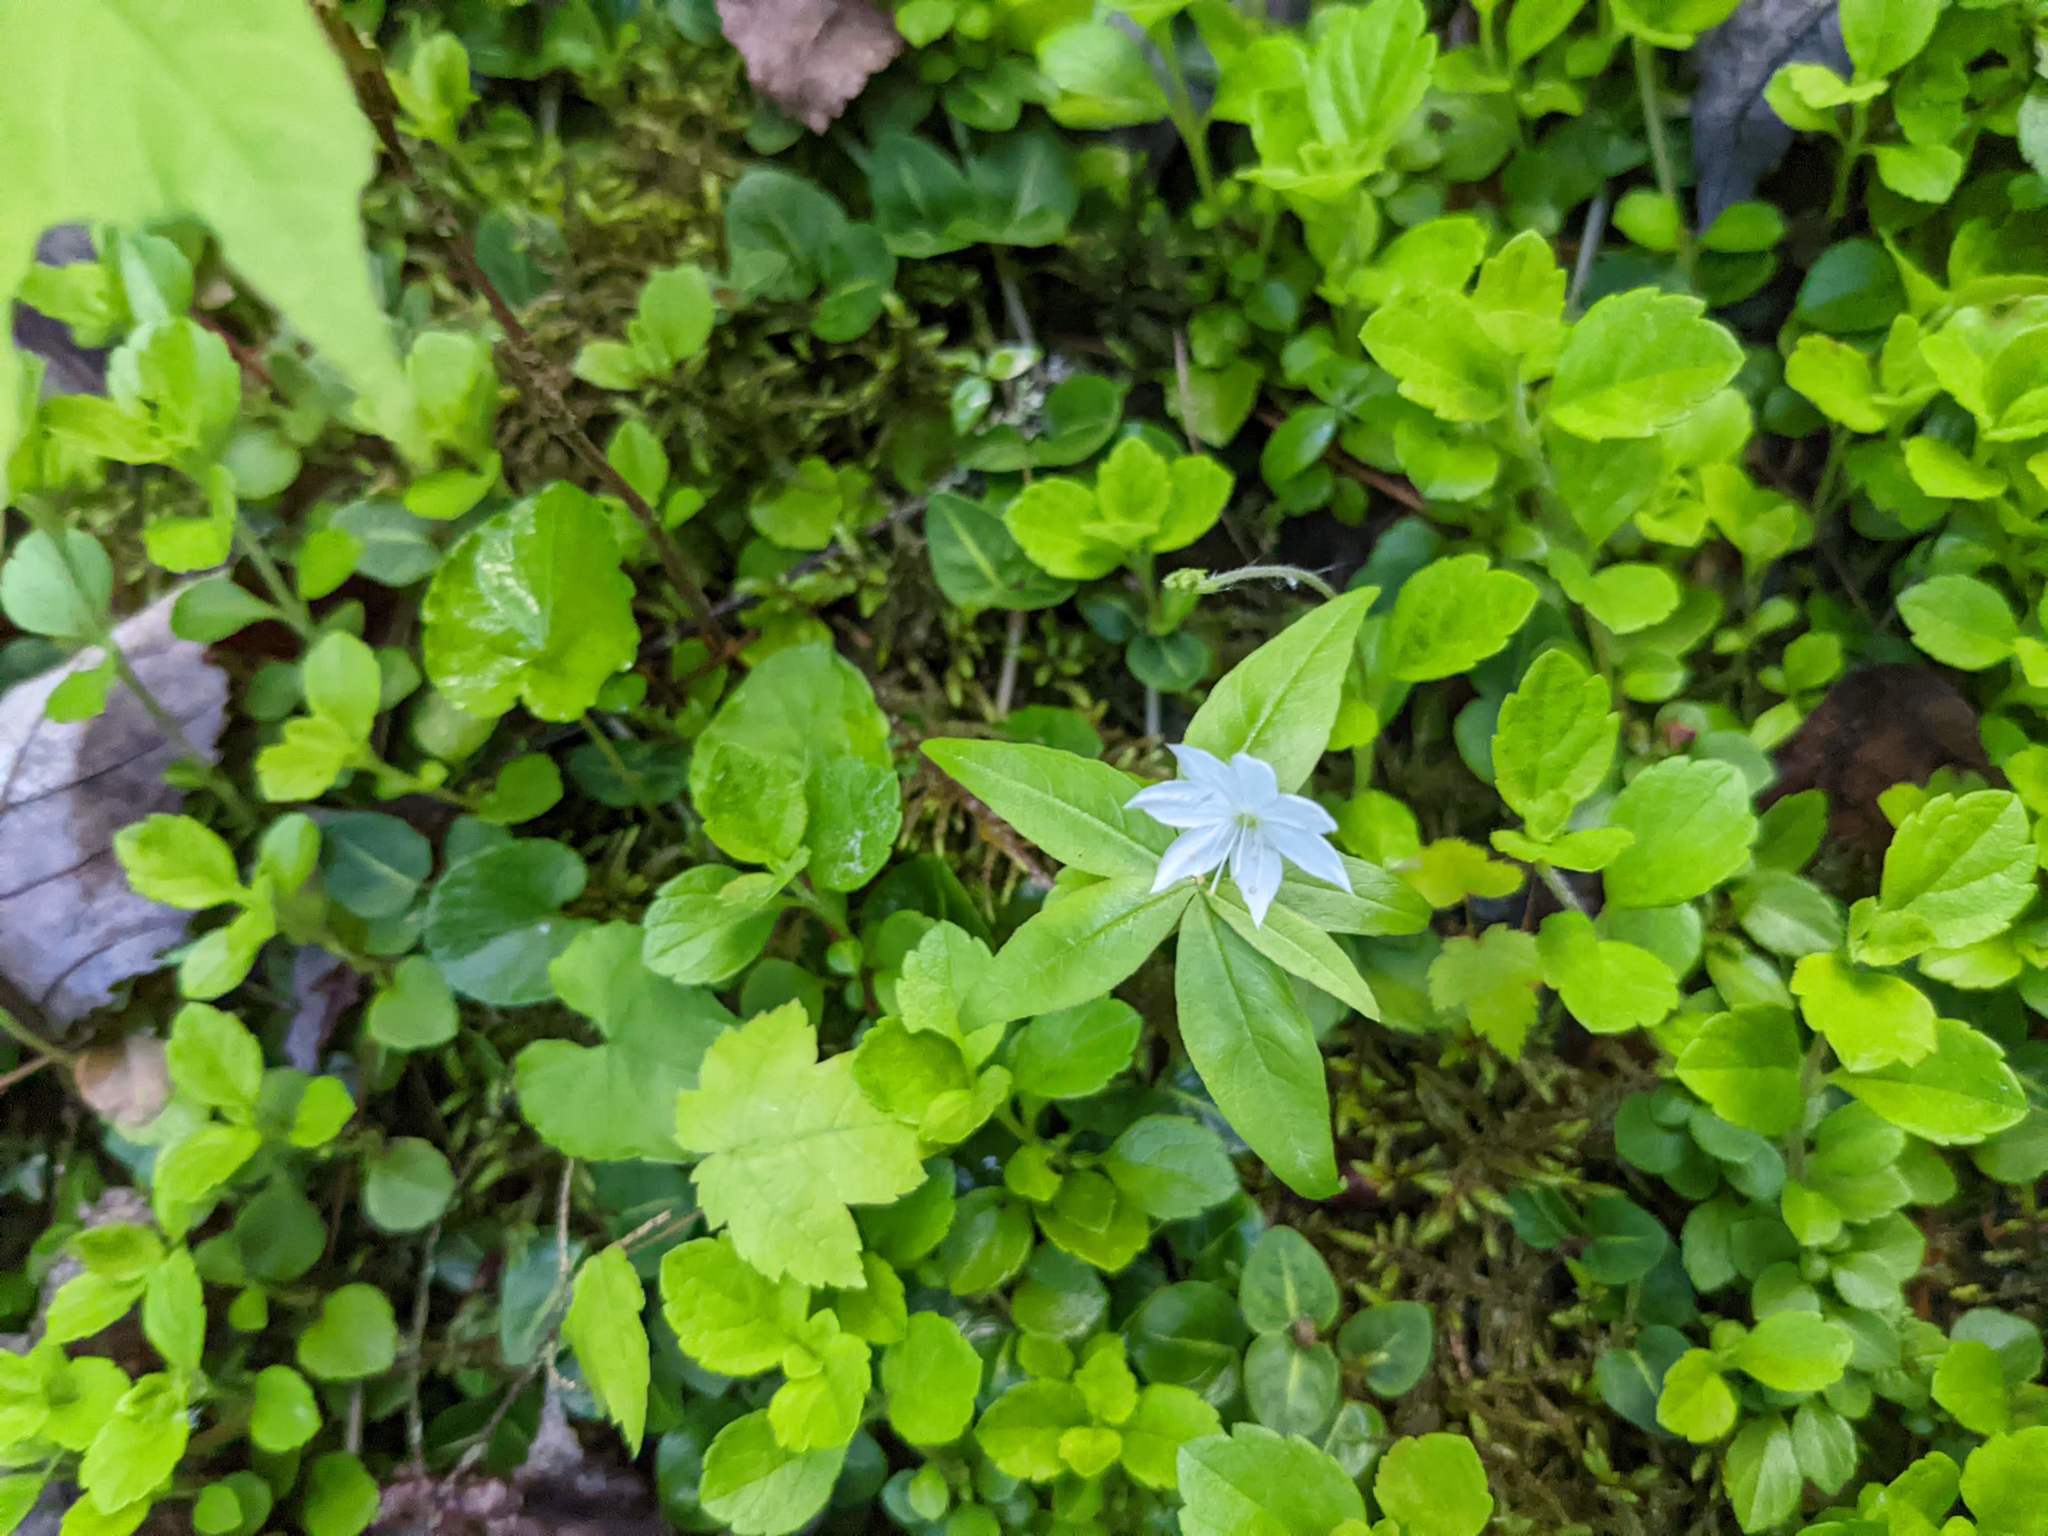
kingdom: Plantae
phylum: Tracheophyta
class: Magnoliopsida
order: Ericales
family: Primulaceae
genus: Lysimachia
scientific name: Lysimachia borealis
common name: American starflower
